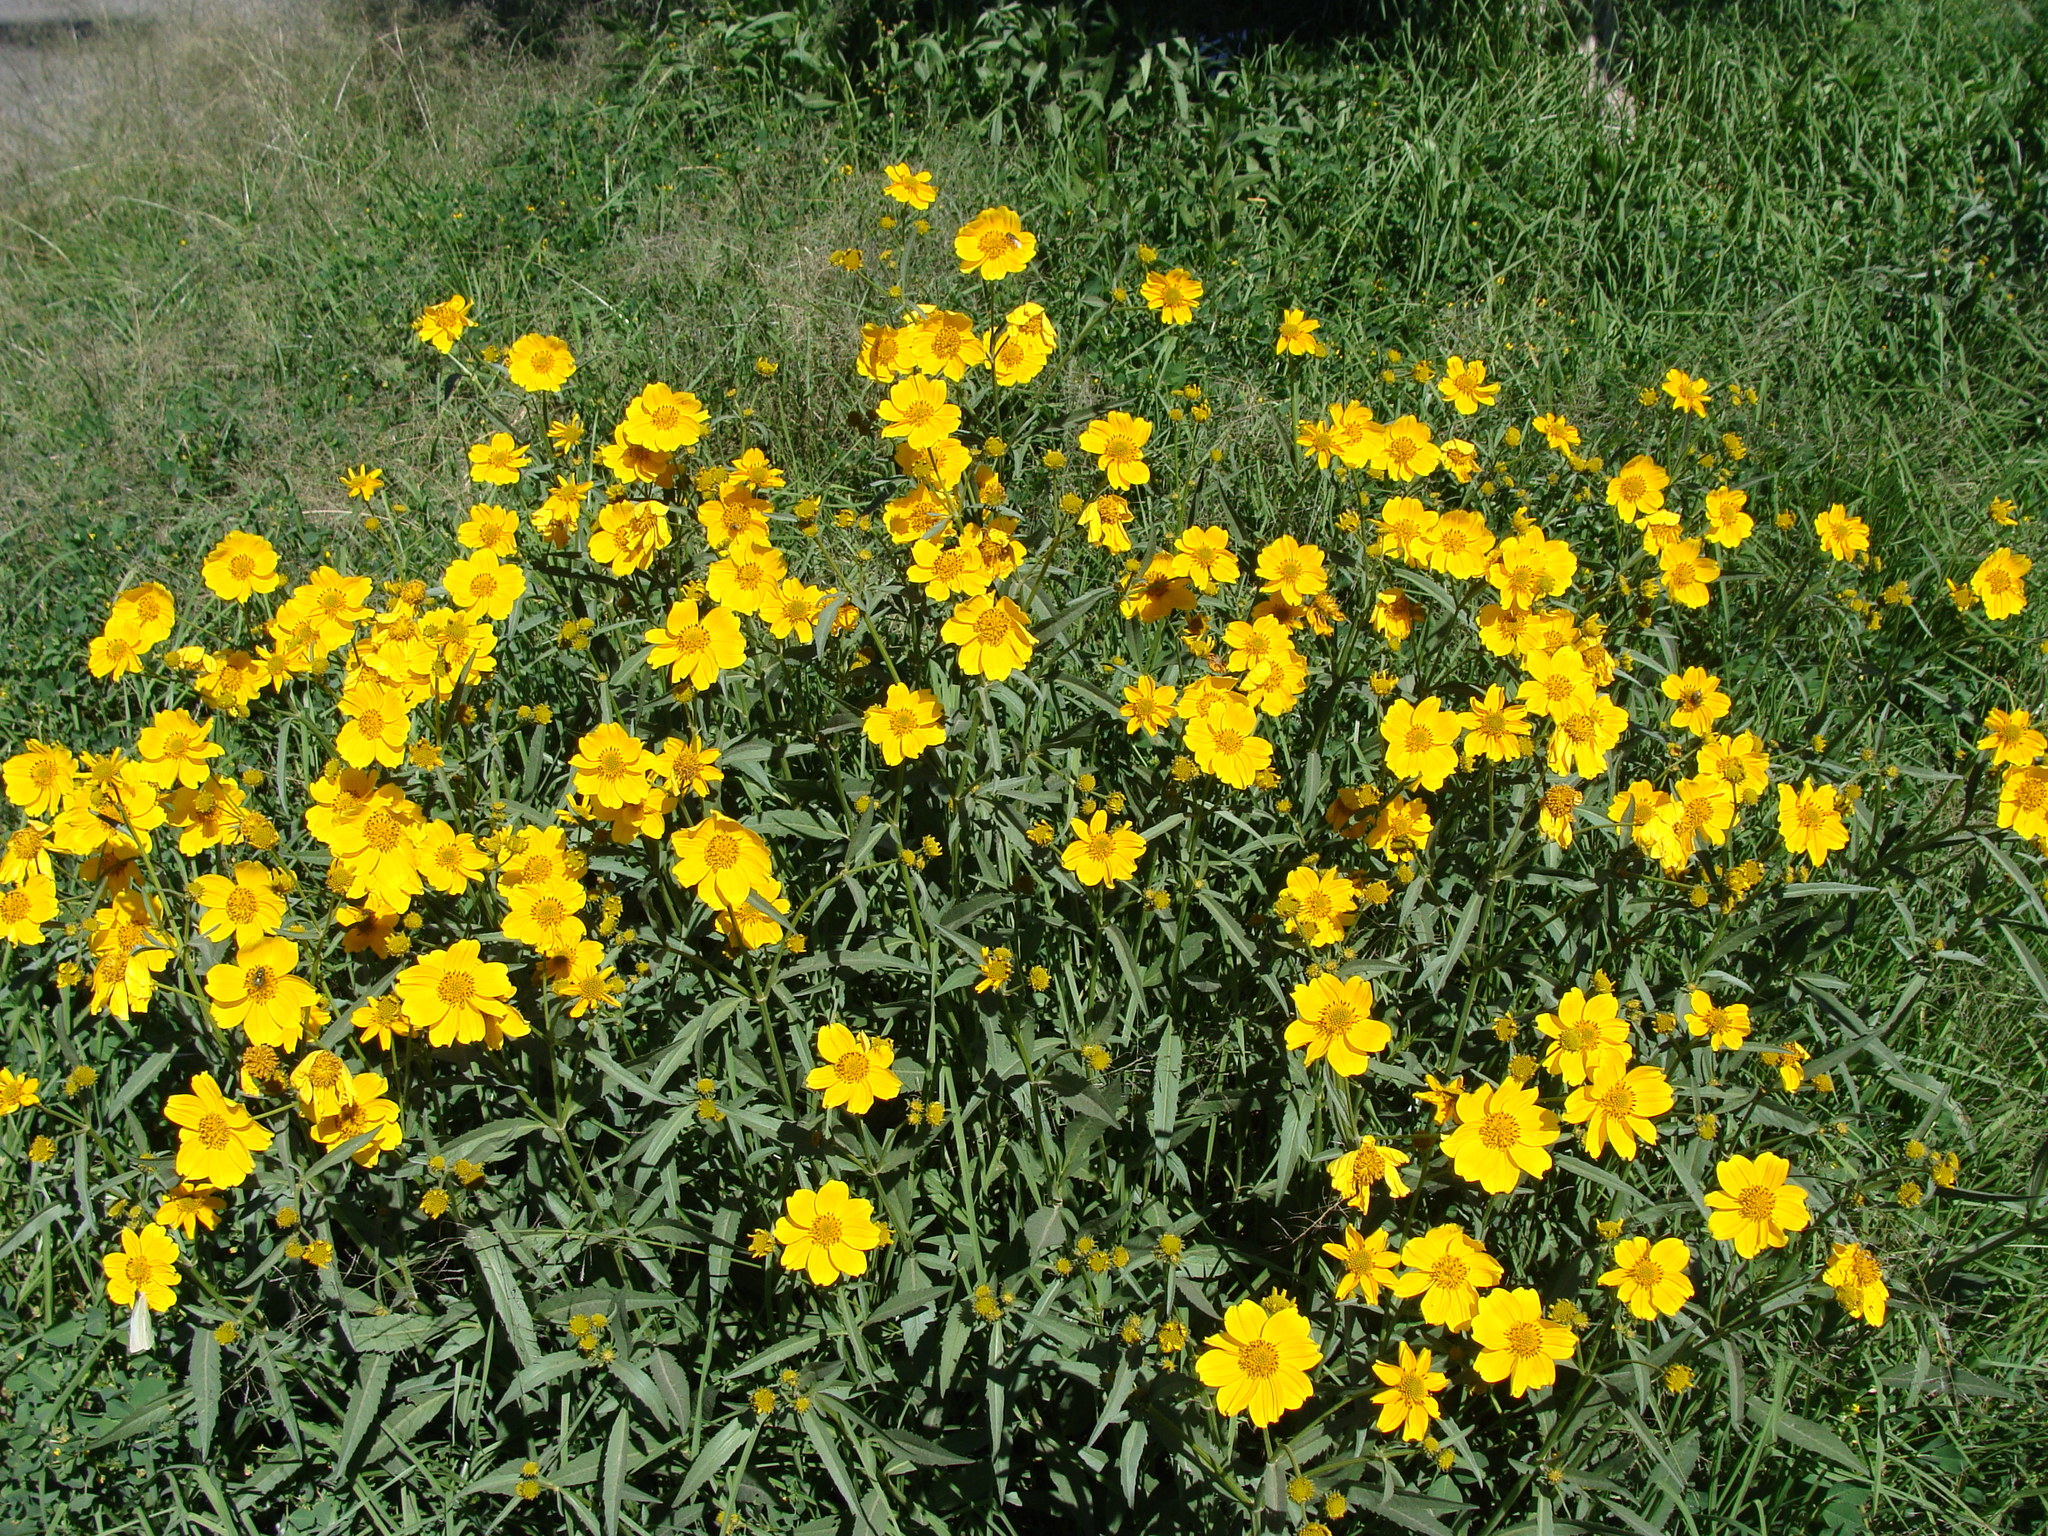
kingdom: Plantae
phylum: Tracheophyta
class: Magnoliopsida
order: Asterales
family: Asteraceae
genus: Bidens
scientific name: Bidens aurea
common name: Arizona beggar-ticks
